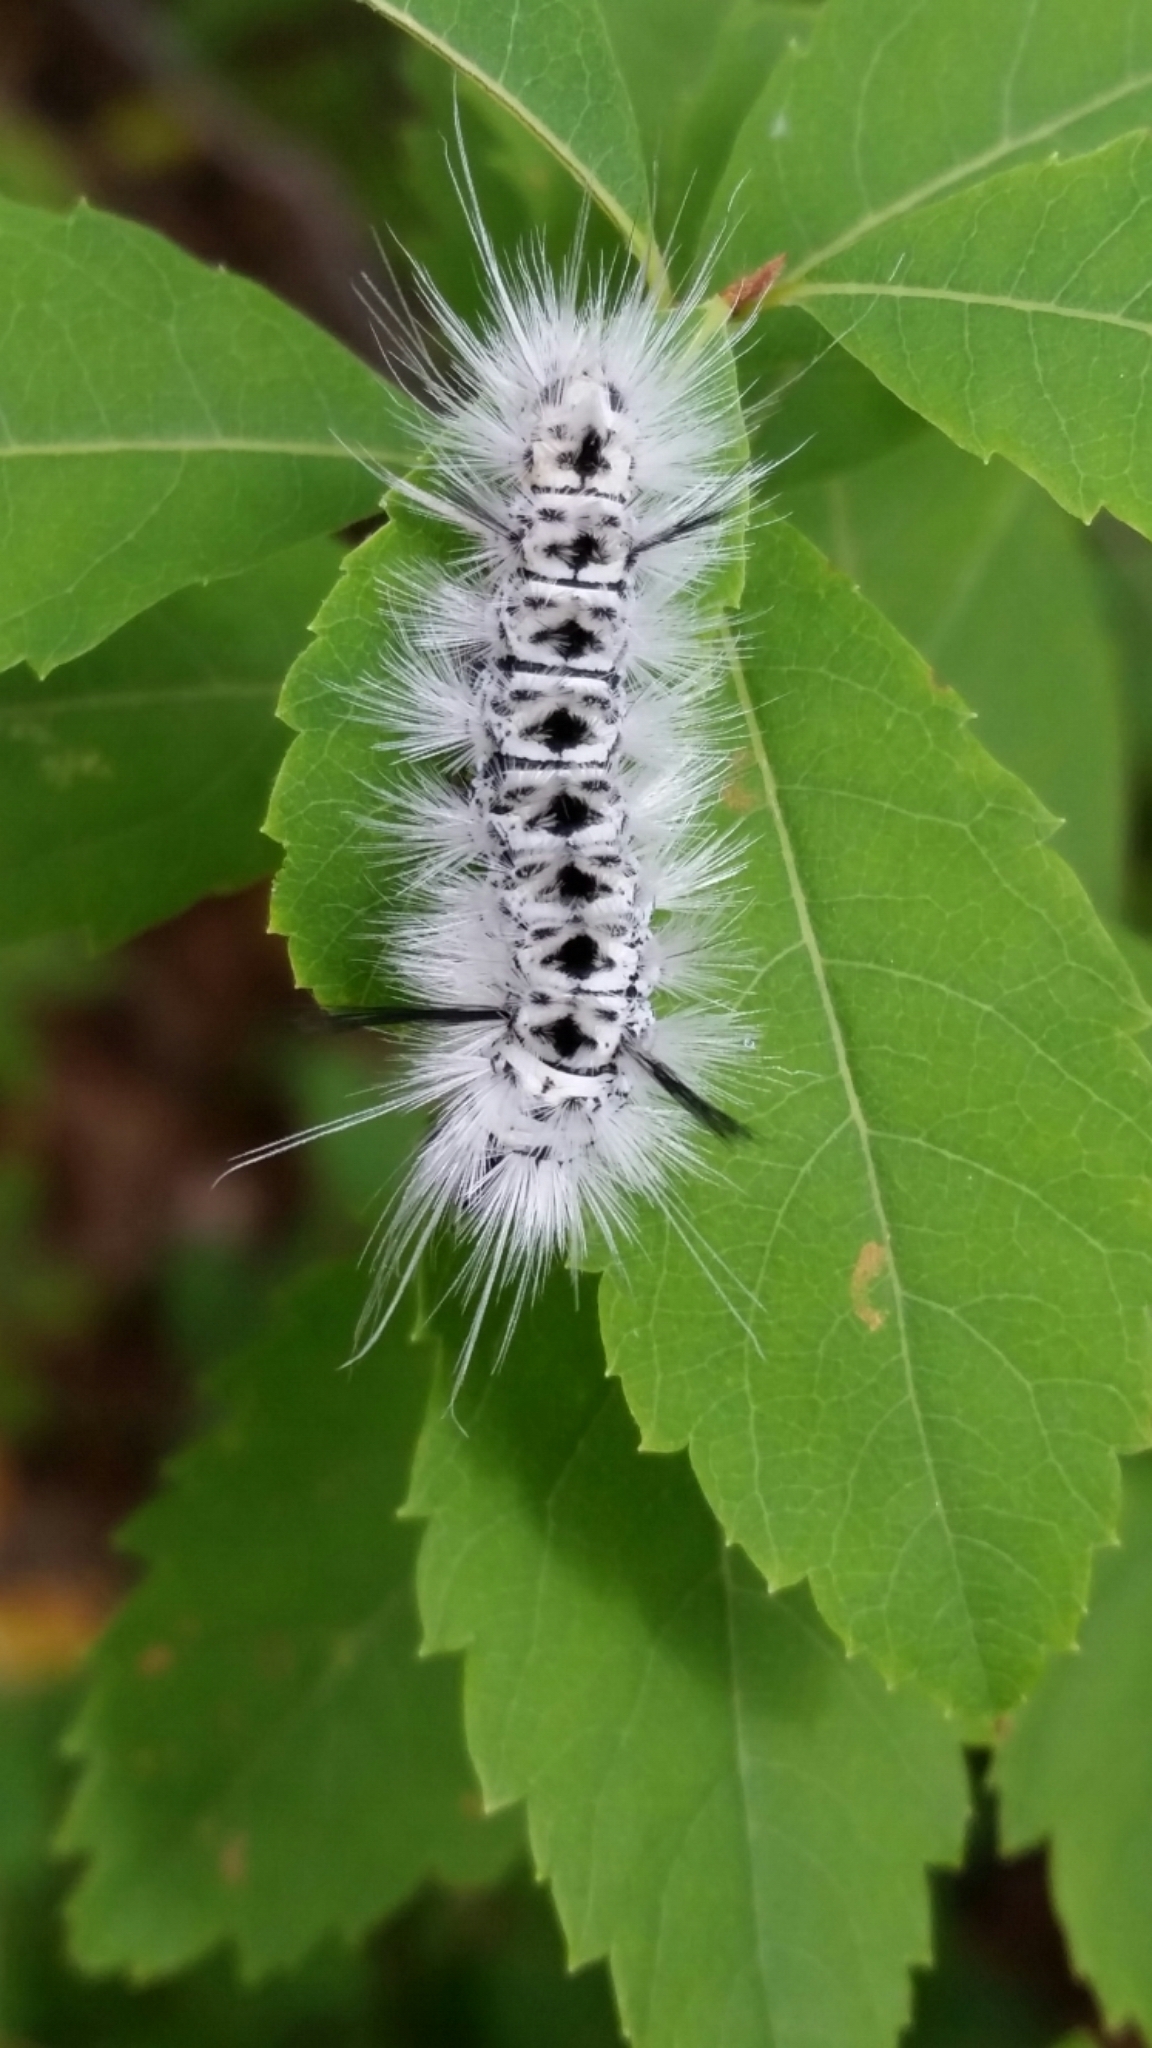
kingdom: Animalia
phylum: Arthropoda
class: Insecta
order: Lepidoptera
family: Erebidae
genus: Lophocampa
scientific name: Lophocampa caryae
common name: Hickory tussock moth
